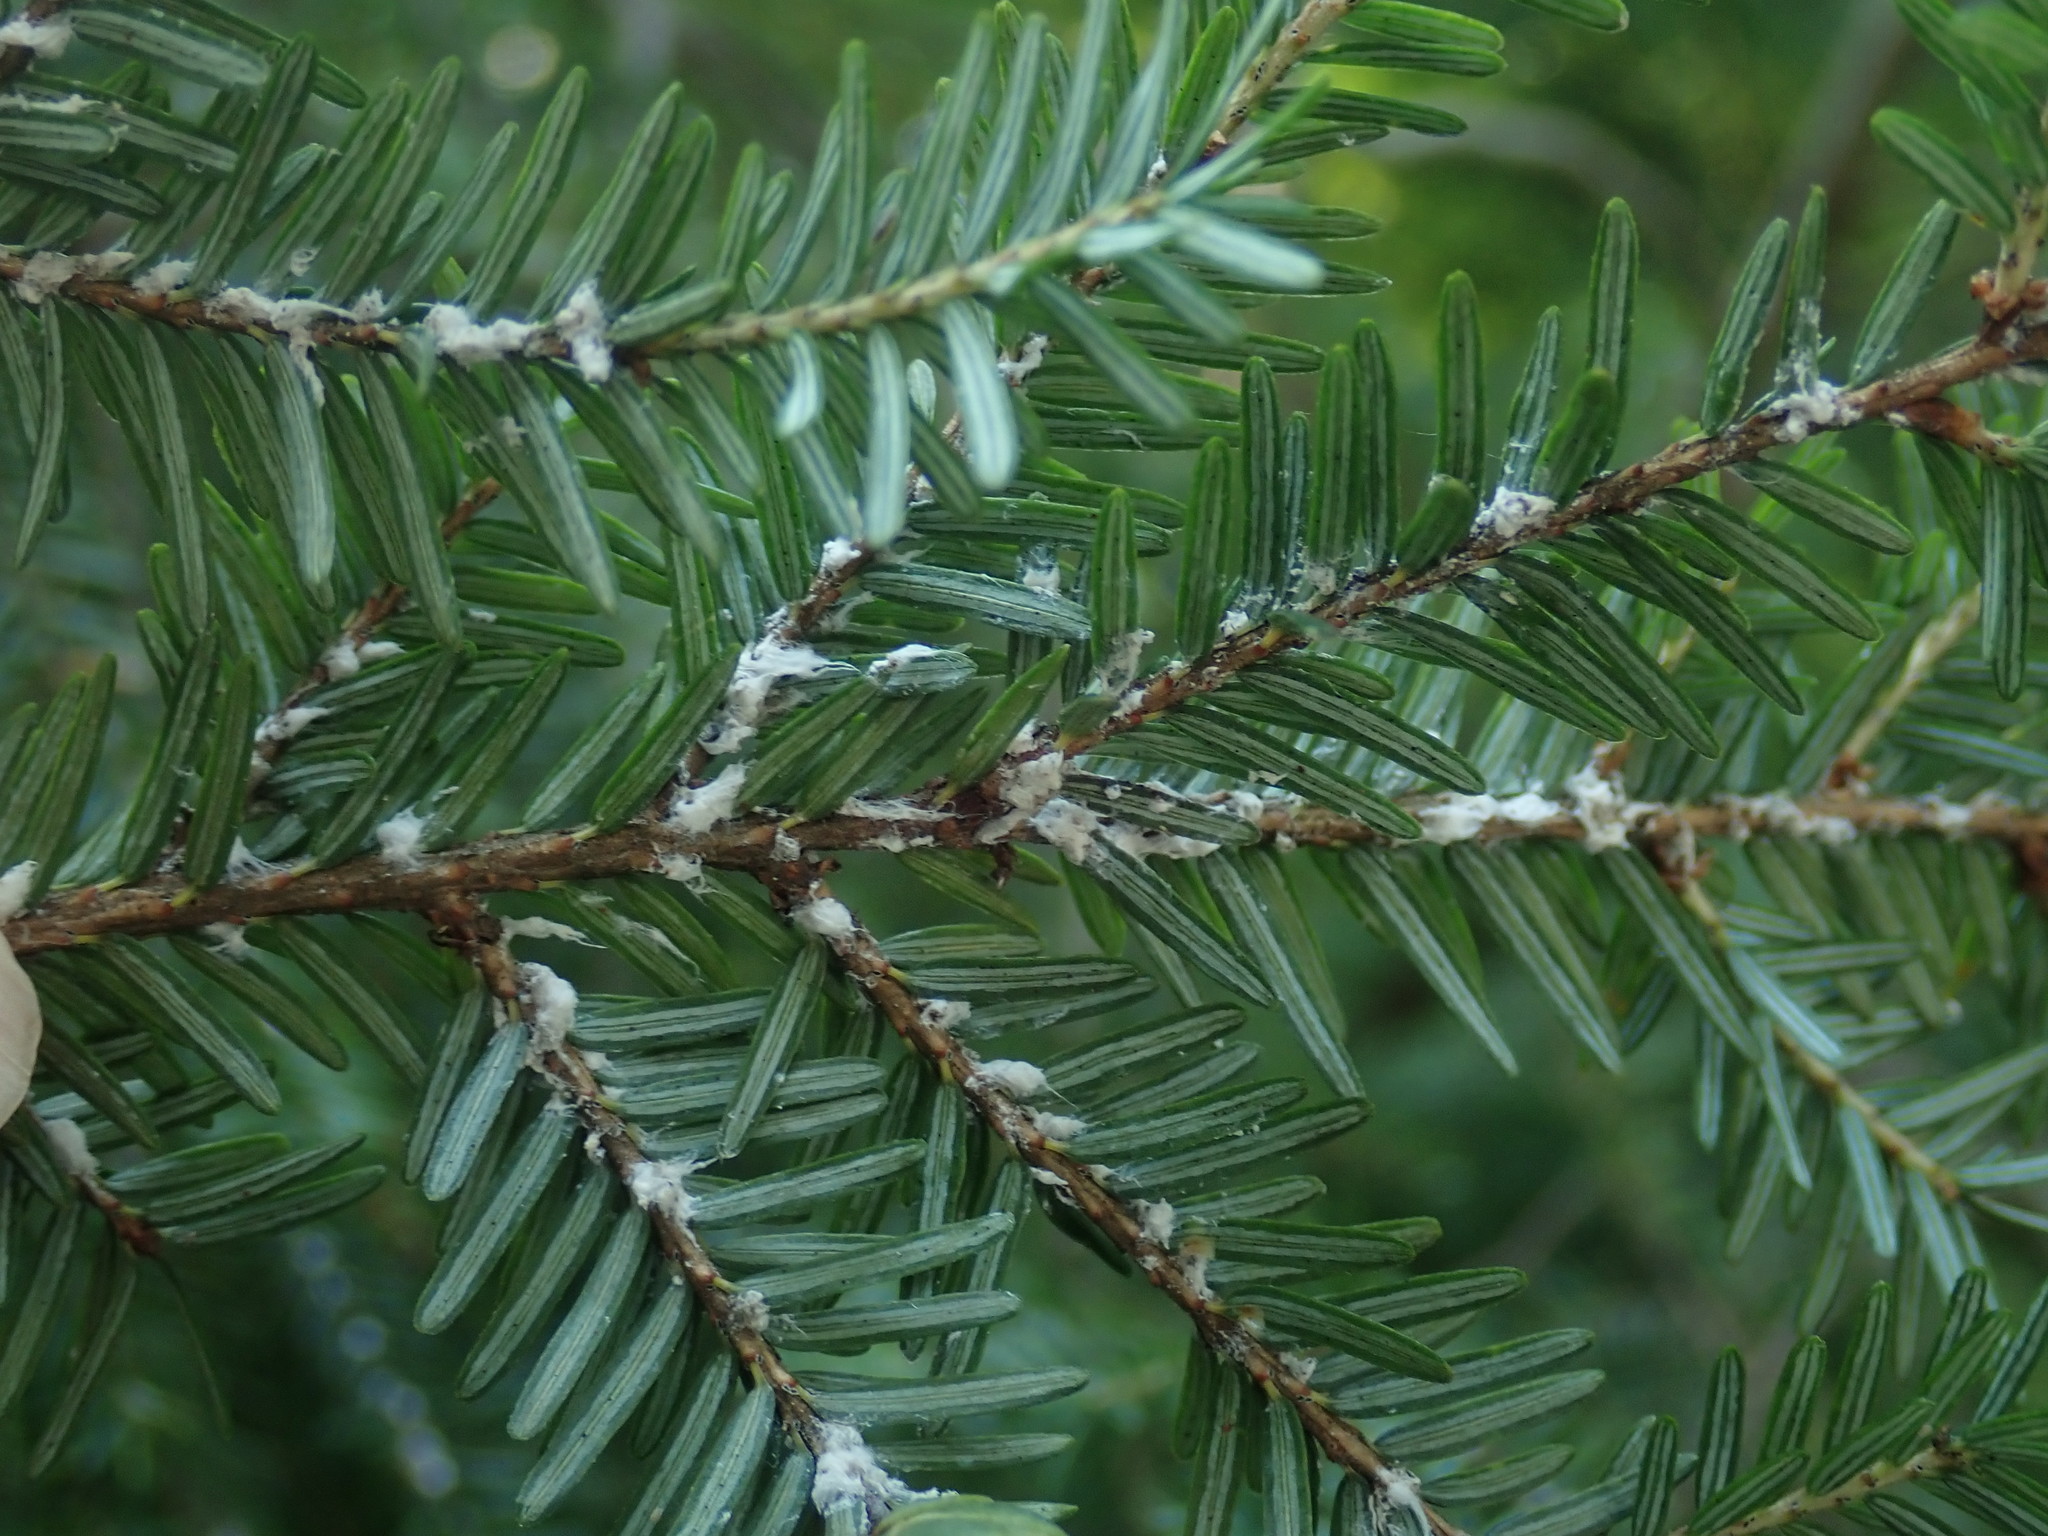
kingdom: Animalia
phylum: Arthropoda
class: Insecta
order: Hemiptera
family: Adelgidae
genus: Adelges
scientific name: Adelges tsugae
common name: Hemlock woolly adelgid
